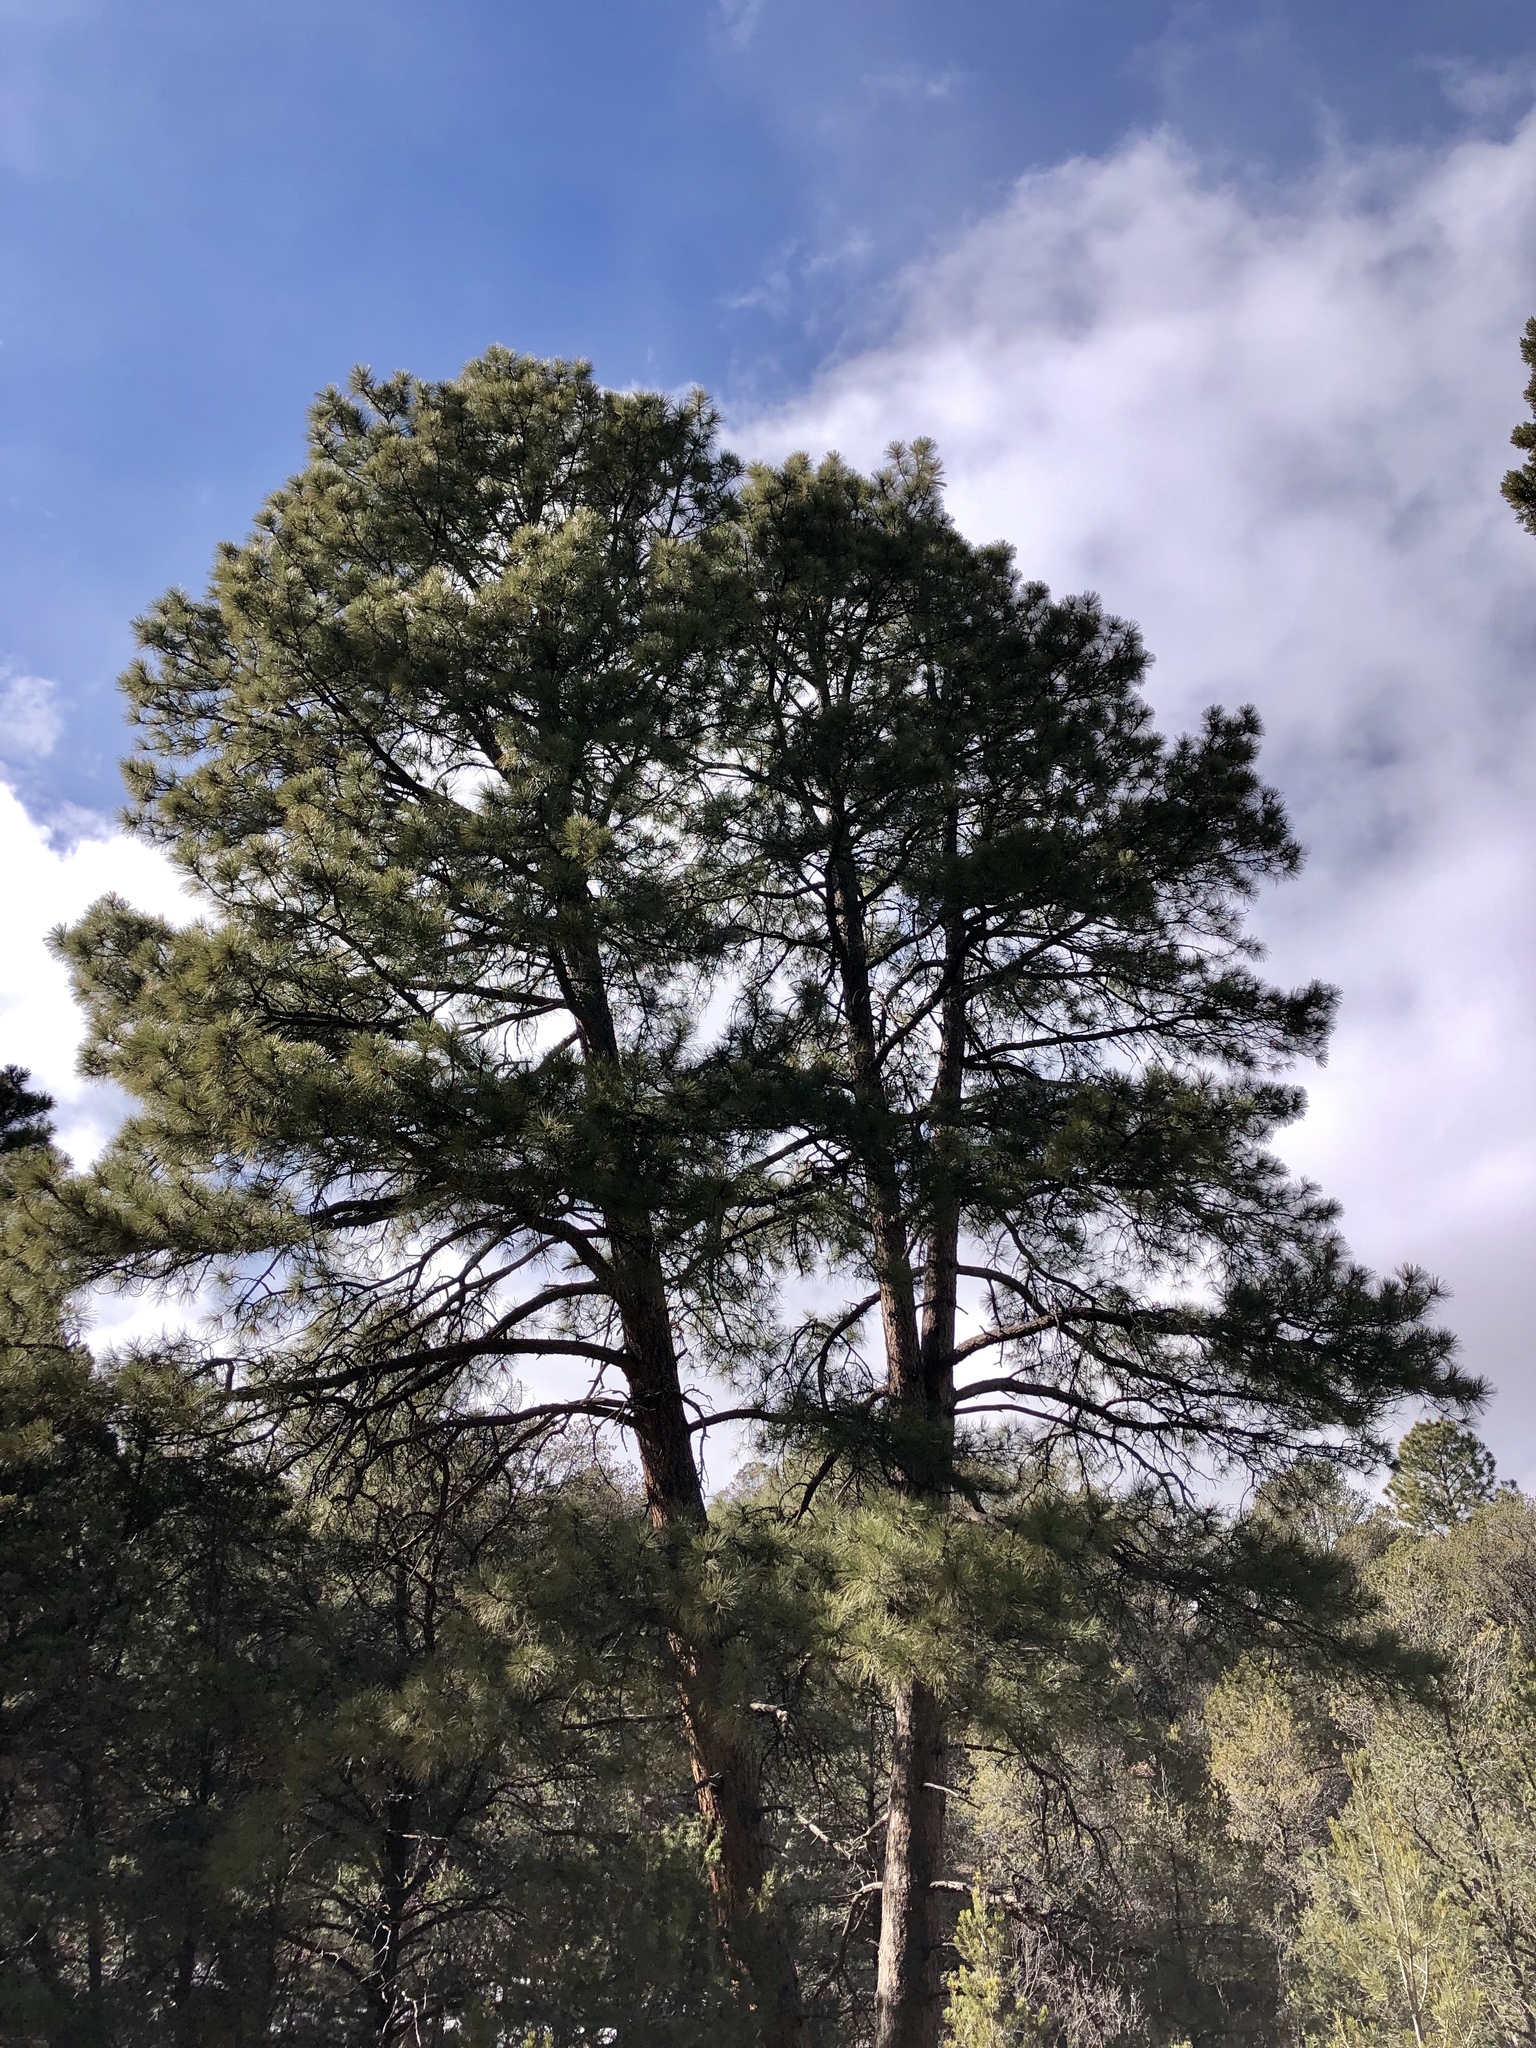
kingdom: Plantae
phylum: Tracheophyta
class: Pinopsida
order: Pinales
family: Pinaceae
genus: Pinus
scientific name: Pinus ponderosa
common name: Western yellow-pine
